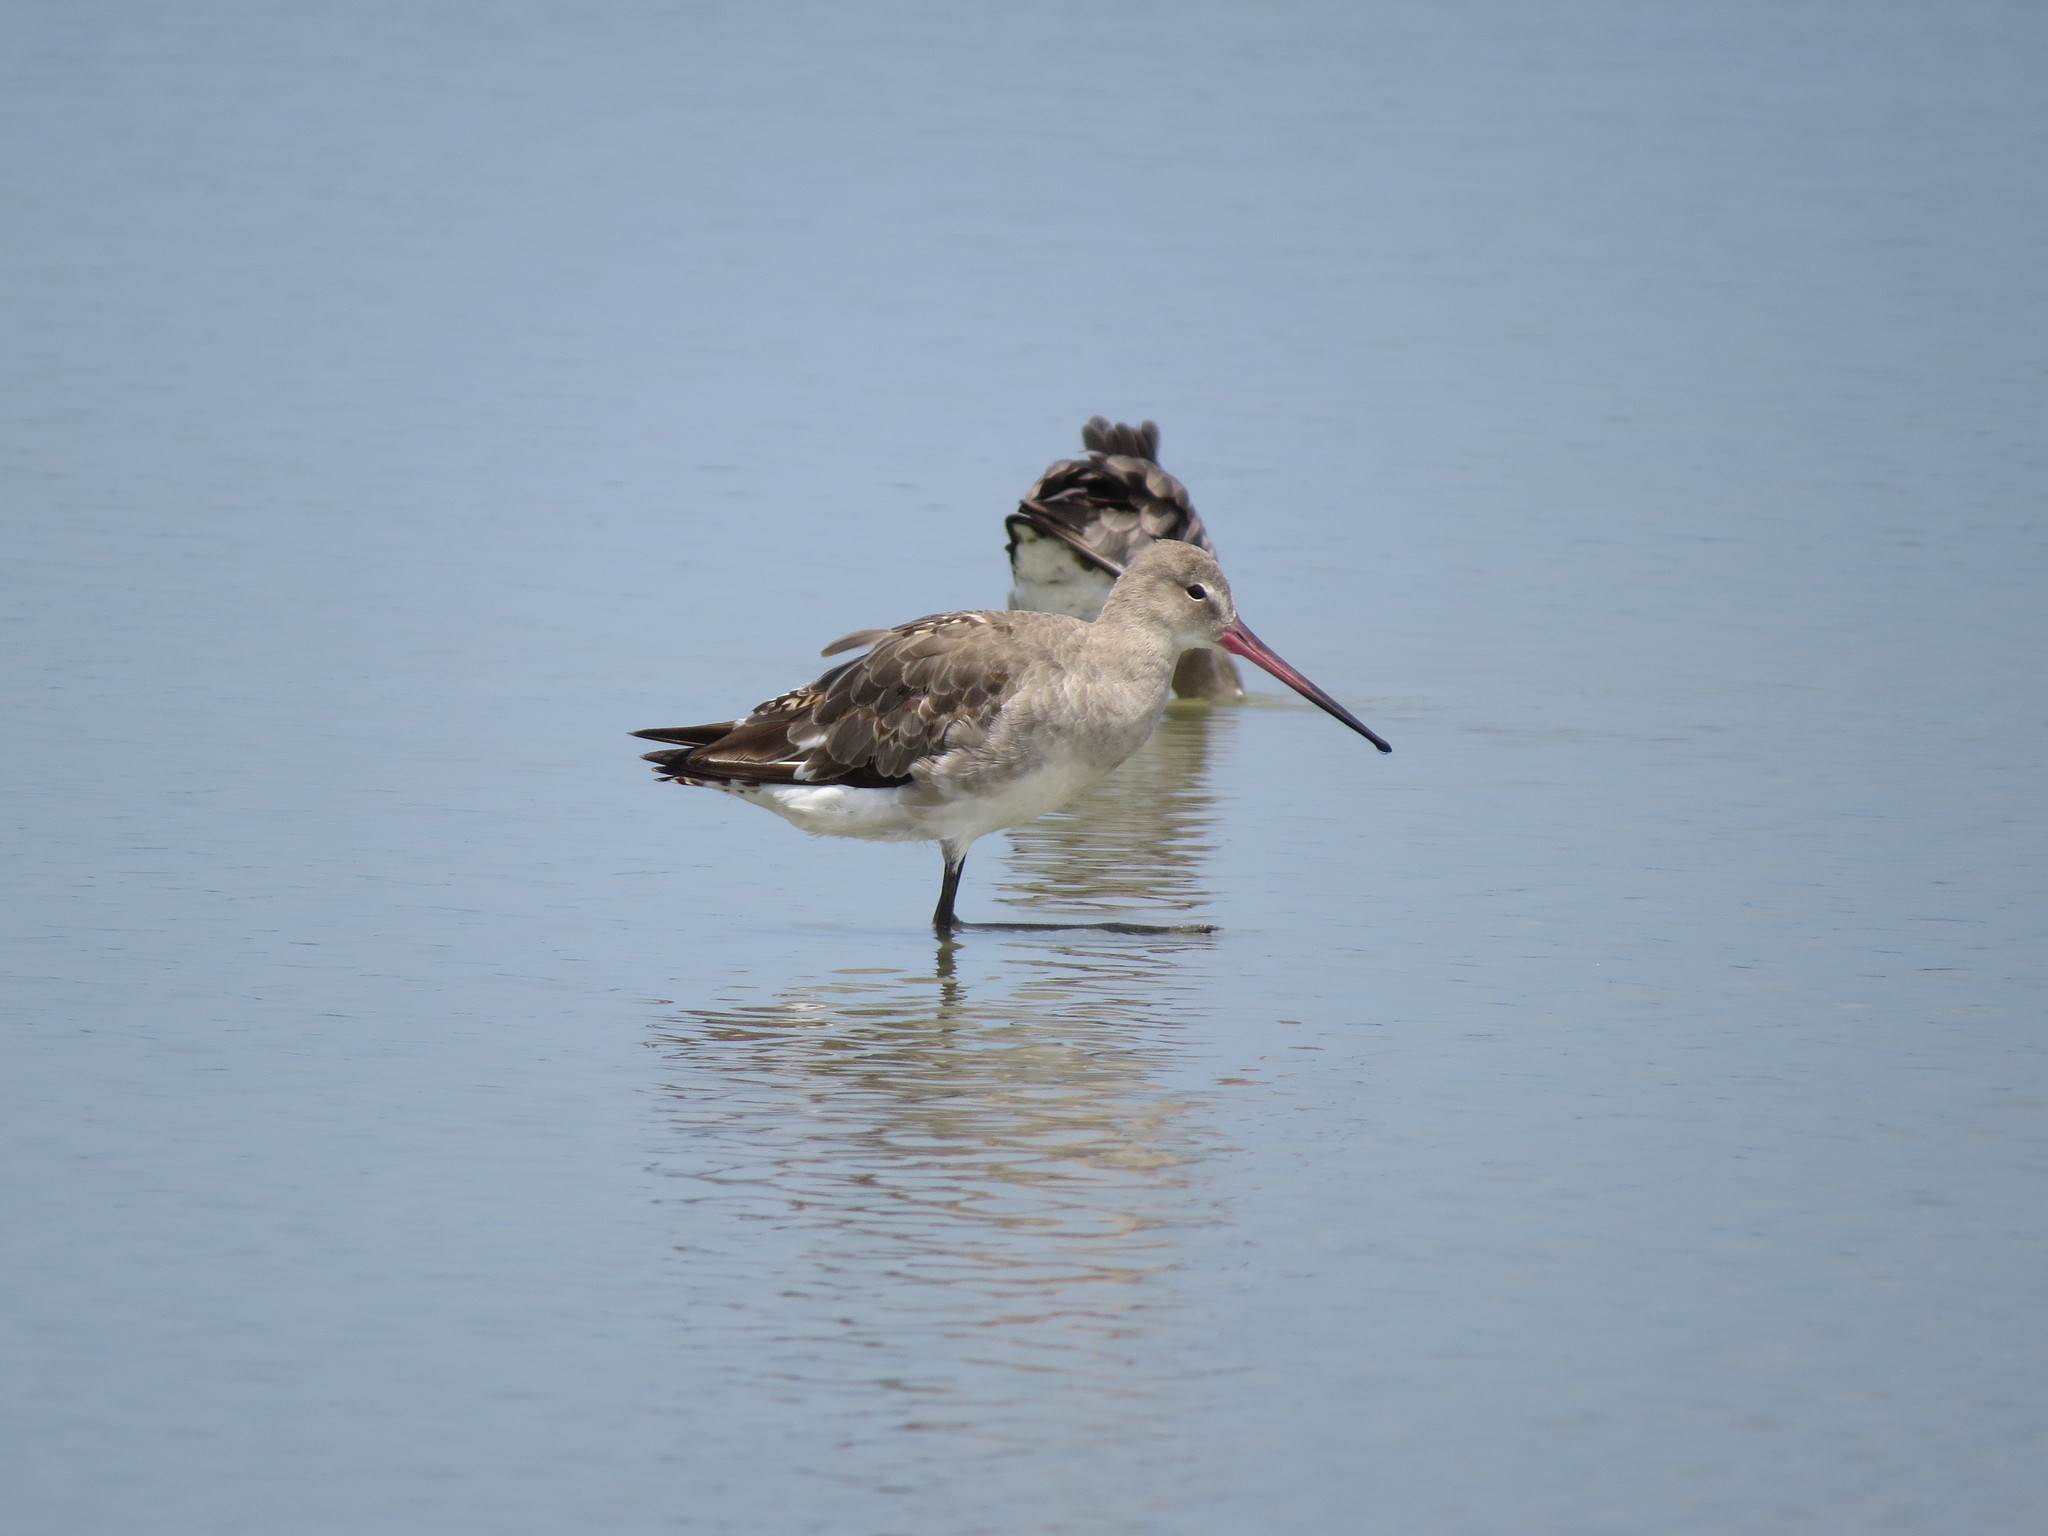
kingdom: Animalia
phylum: Chordata
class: Aves
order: Charadriiformes
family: Scolopacidae
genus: Limosa
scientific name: Limosa limosa
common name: Black-tailed godwit
